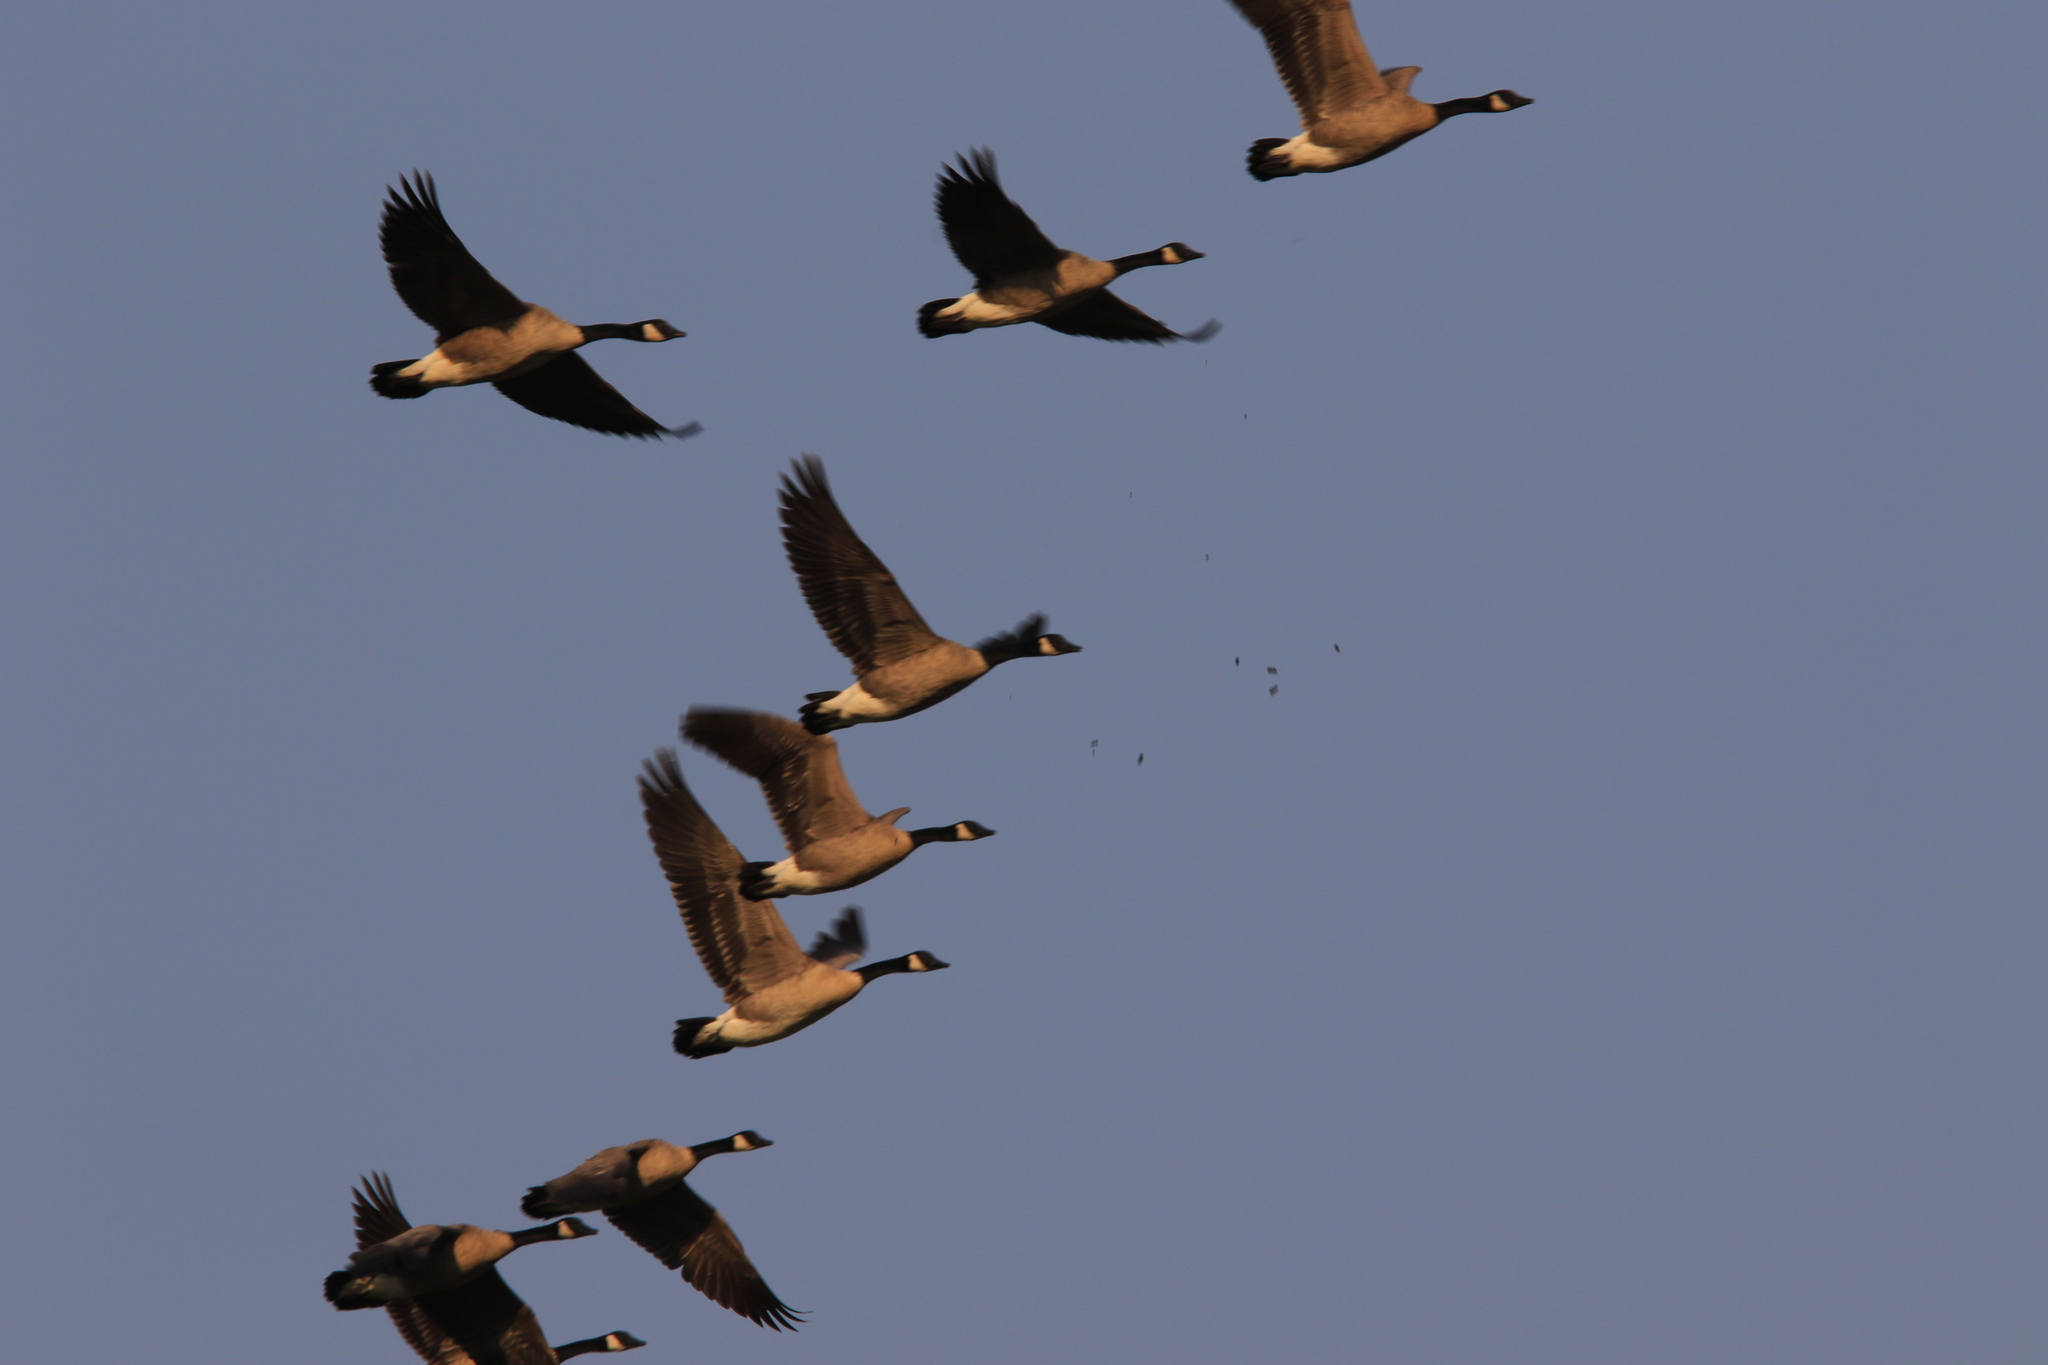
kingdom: Animalia
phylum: Chordata
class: Aves
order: Anseriformes
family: Anatidae
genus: Branta
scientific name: Branta canadensis
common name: Canada goose
